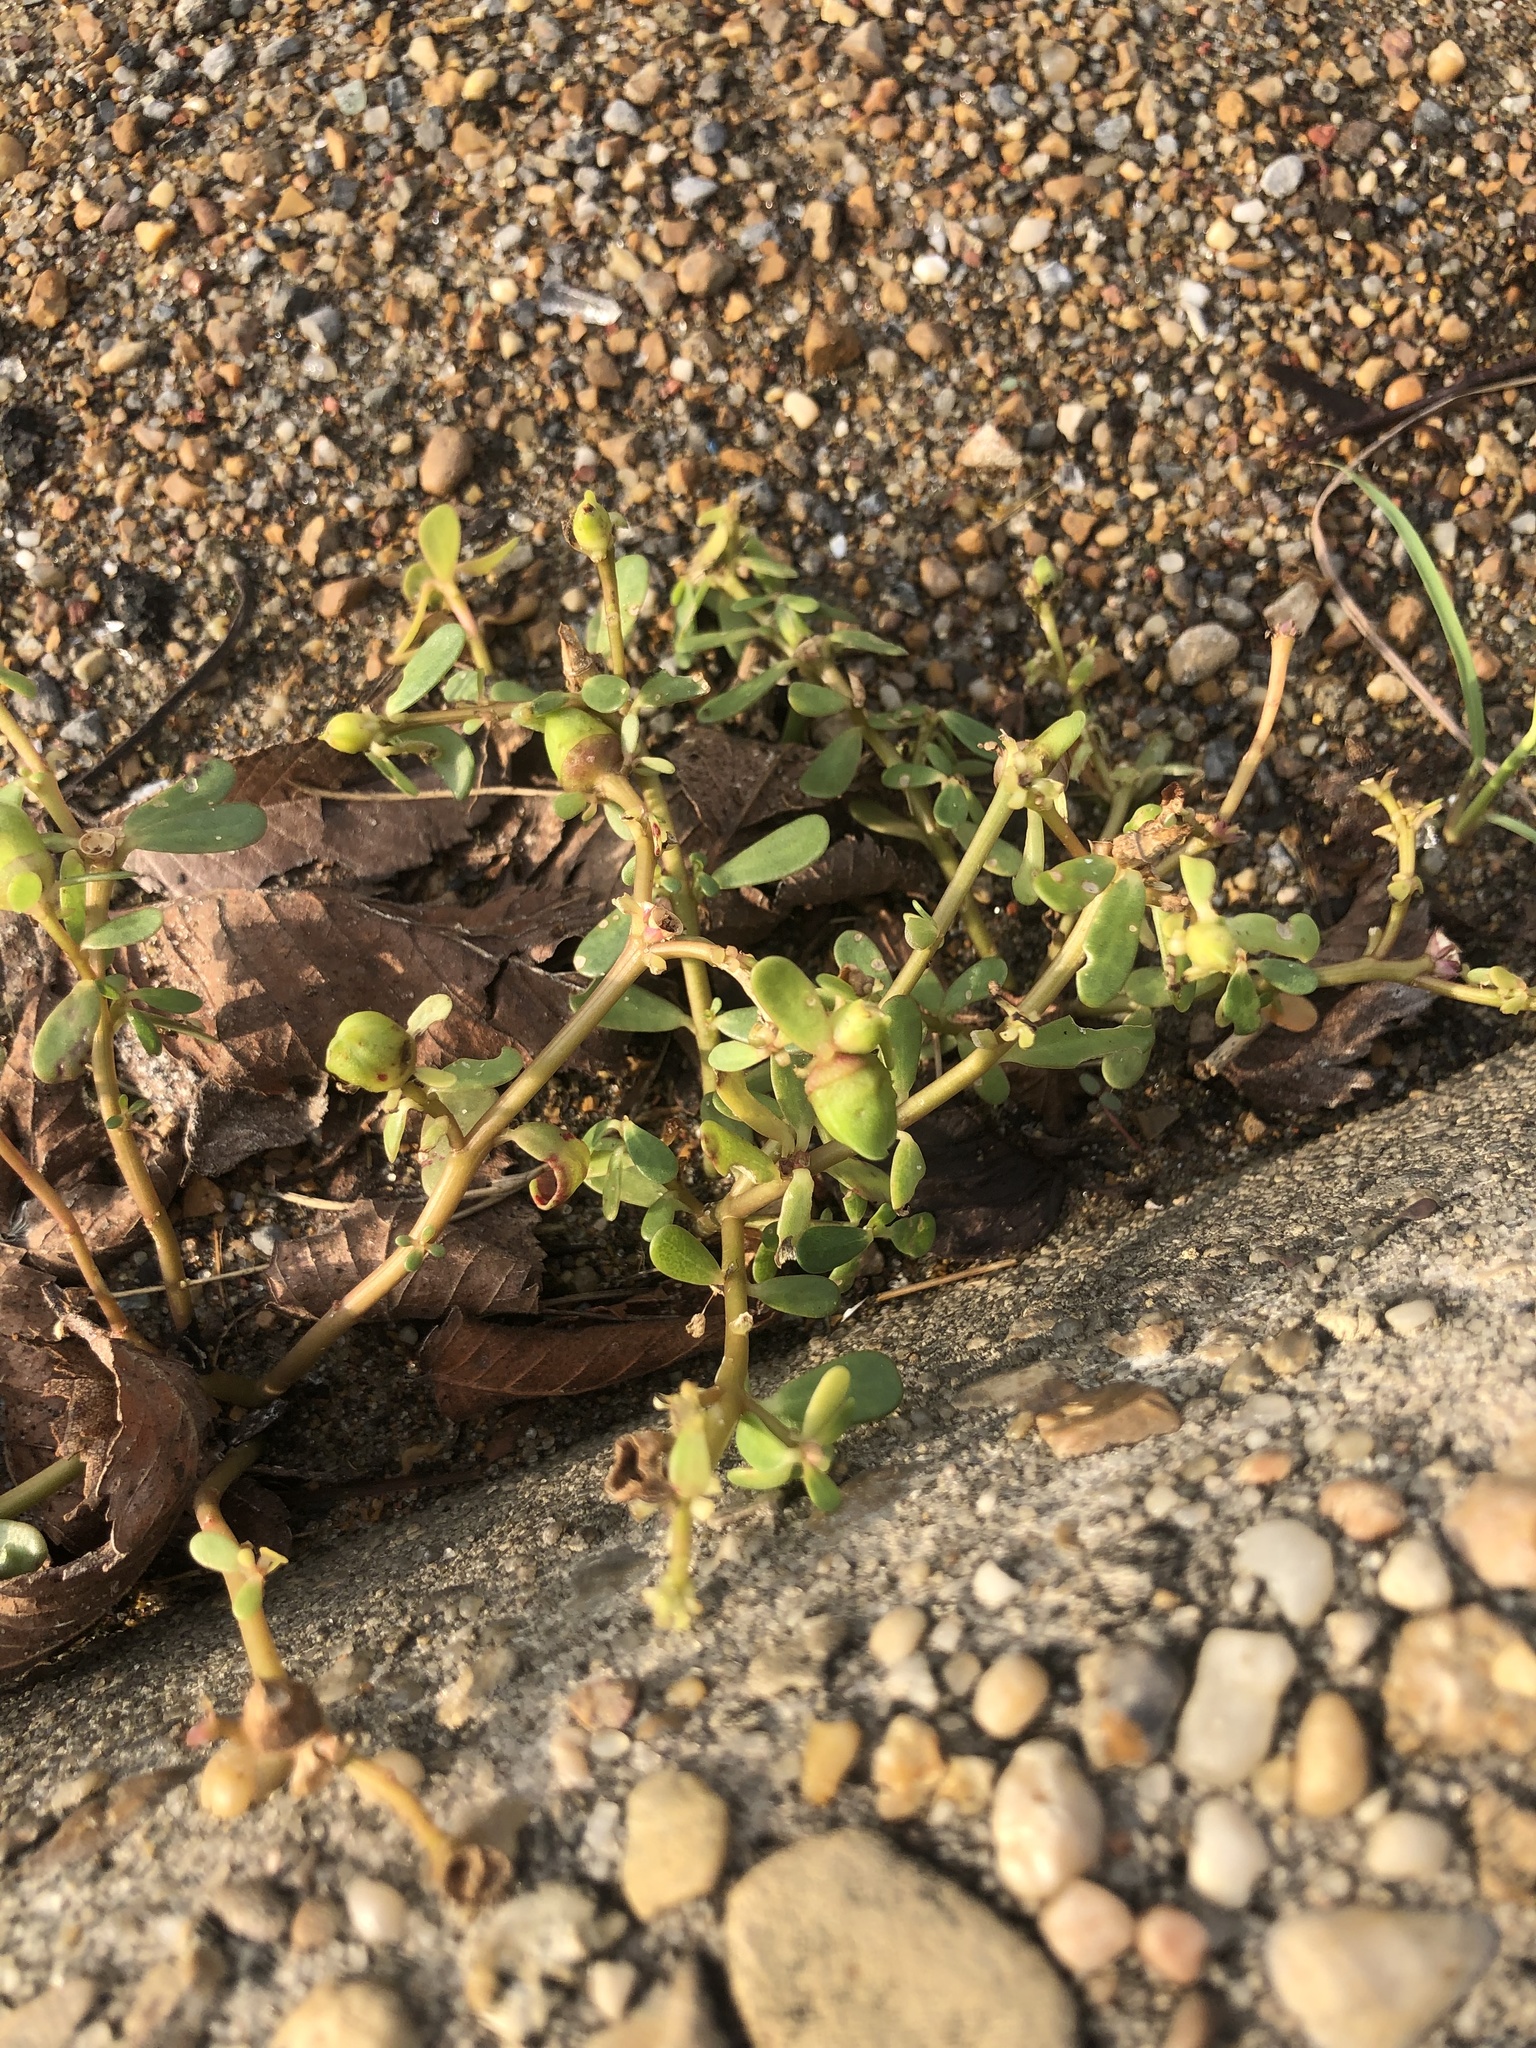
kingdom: Plantae
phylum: Tracheophyta
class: Magnoliopsida
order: Caryophyllales
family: Portulacaceae
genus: Portulaca
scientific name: Portulaca oleracea
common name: Common purslane
